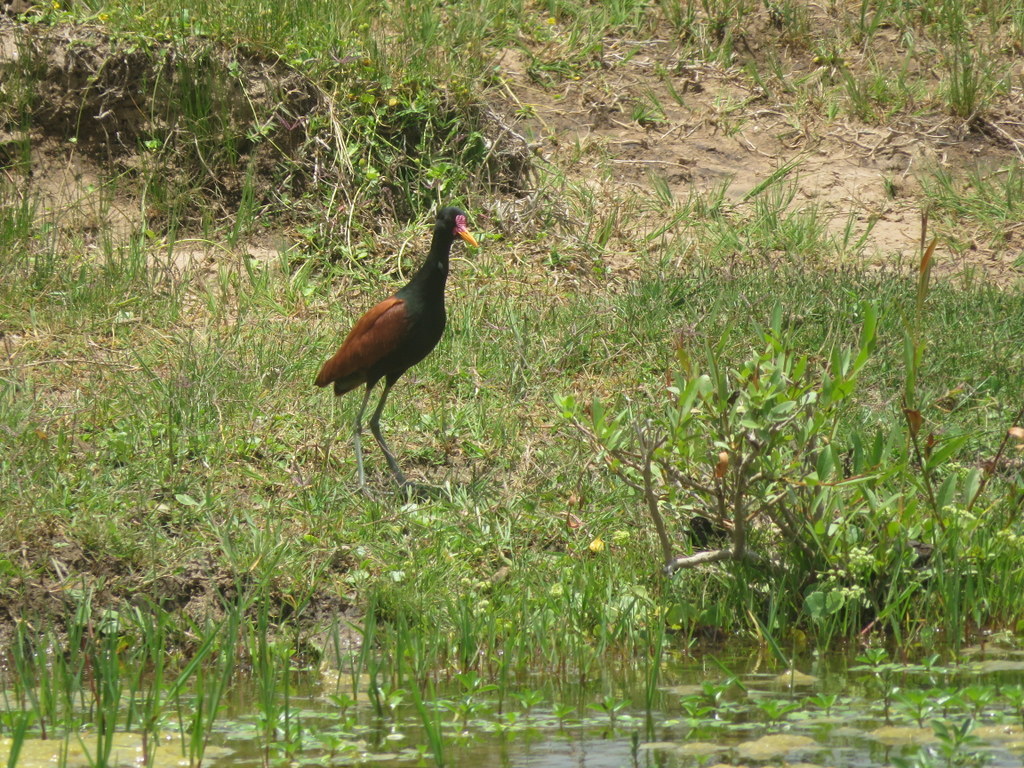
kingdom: Animalia
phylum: Chordata
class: Aves
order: Charadriiformes
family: Jacanidae
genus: Jacana
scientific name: Jacana jacana
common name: Wattled jacana
